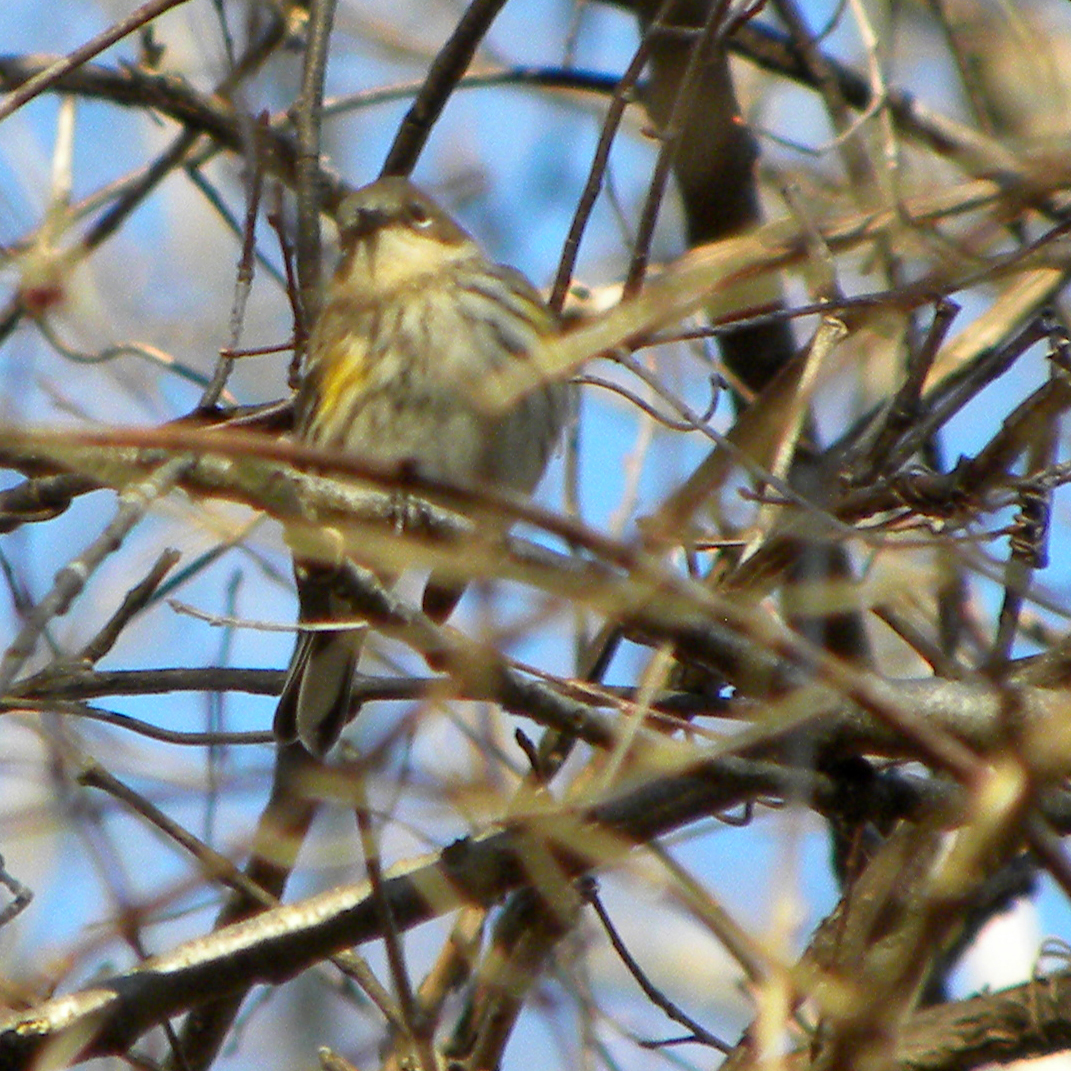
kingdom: Animalia
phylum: Chordata
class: Aves
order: Passeriformes
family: Parulidae
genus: Setophaga
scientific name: Setophaga coronata
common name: Myrtle warbler
